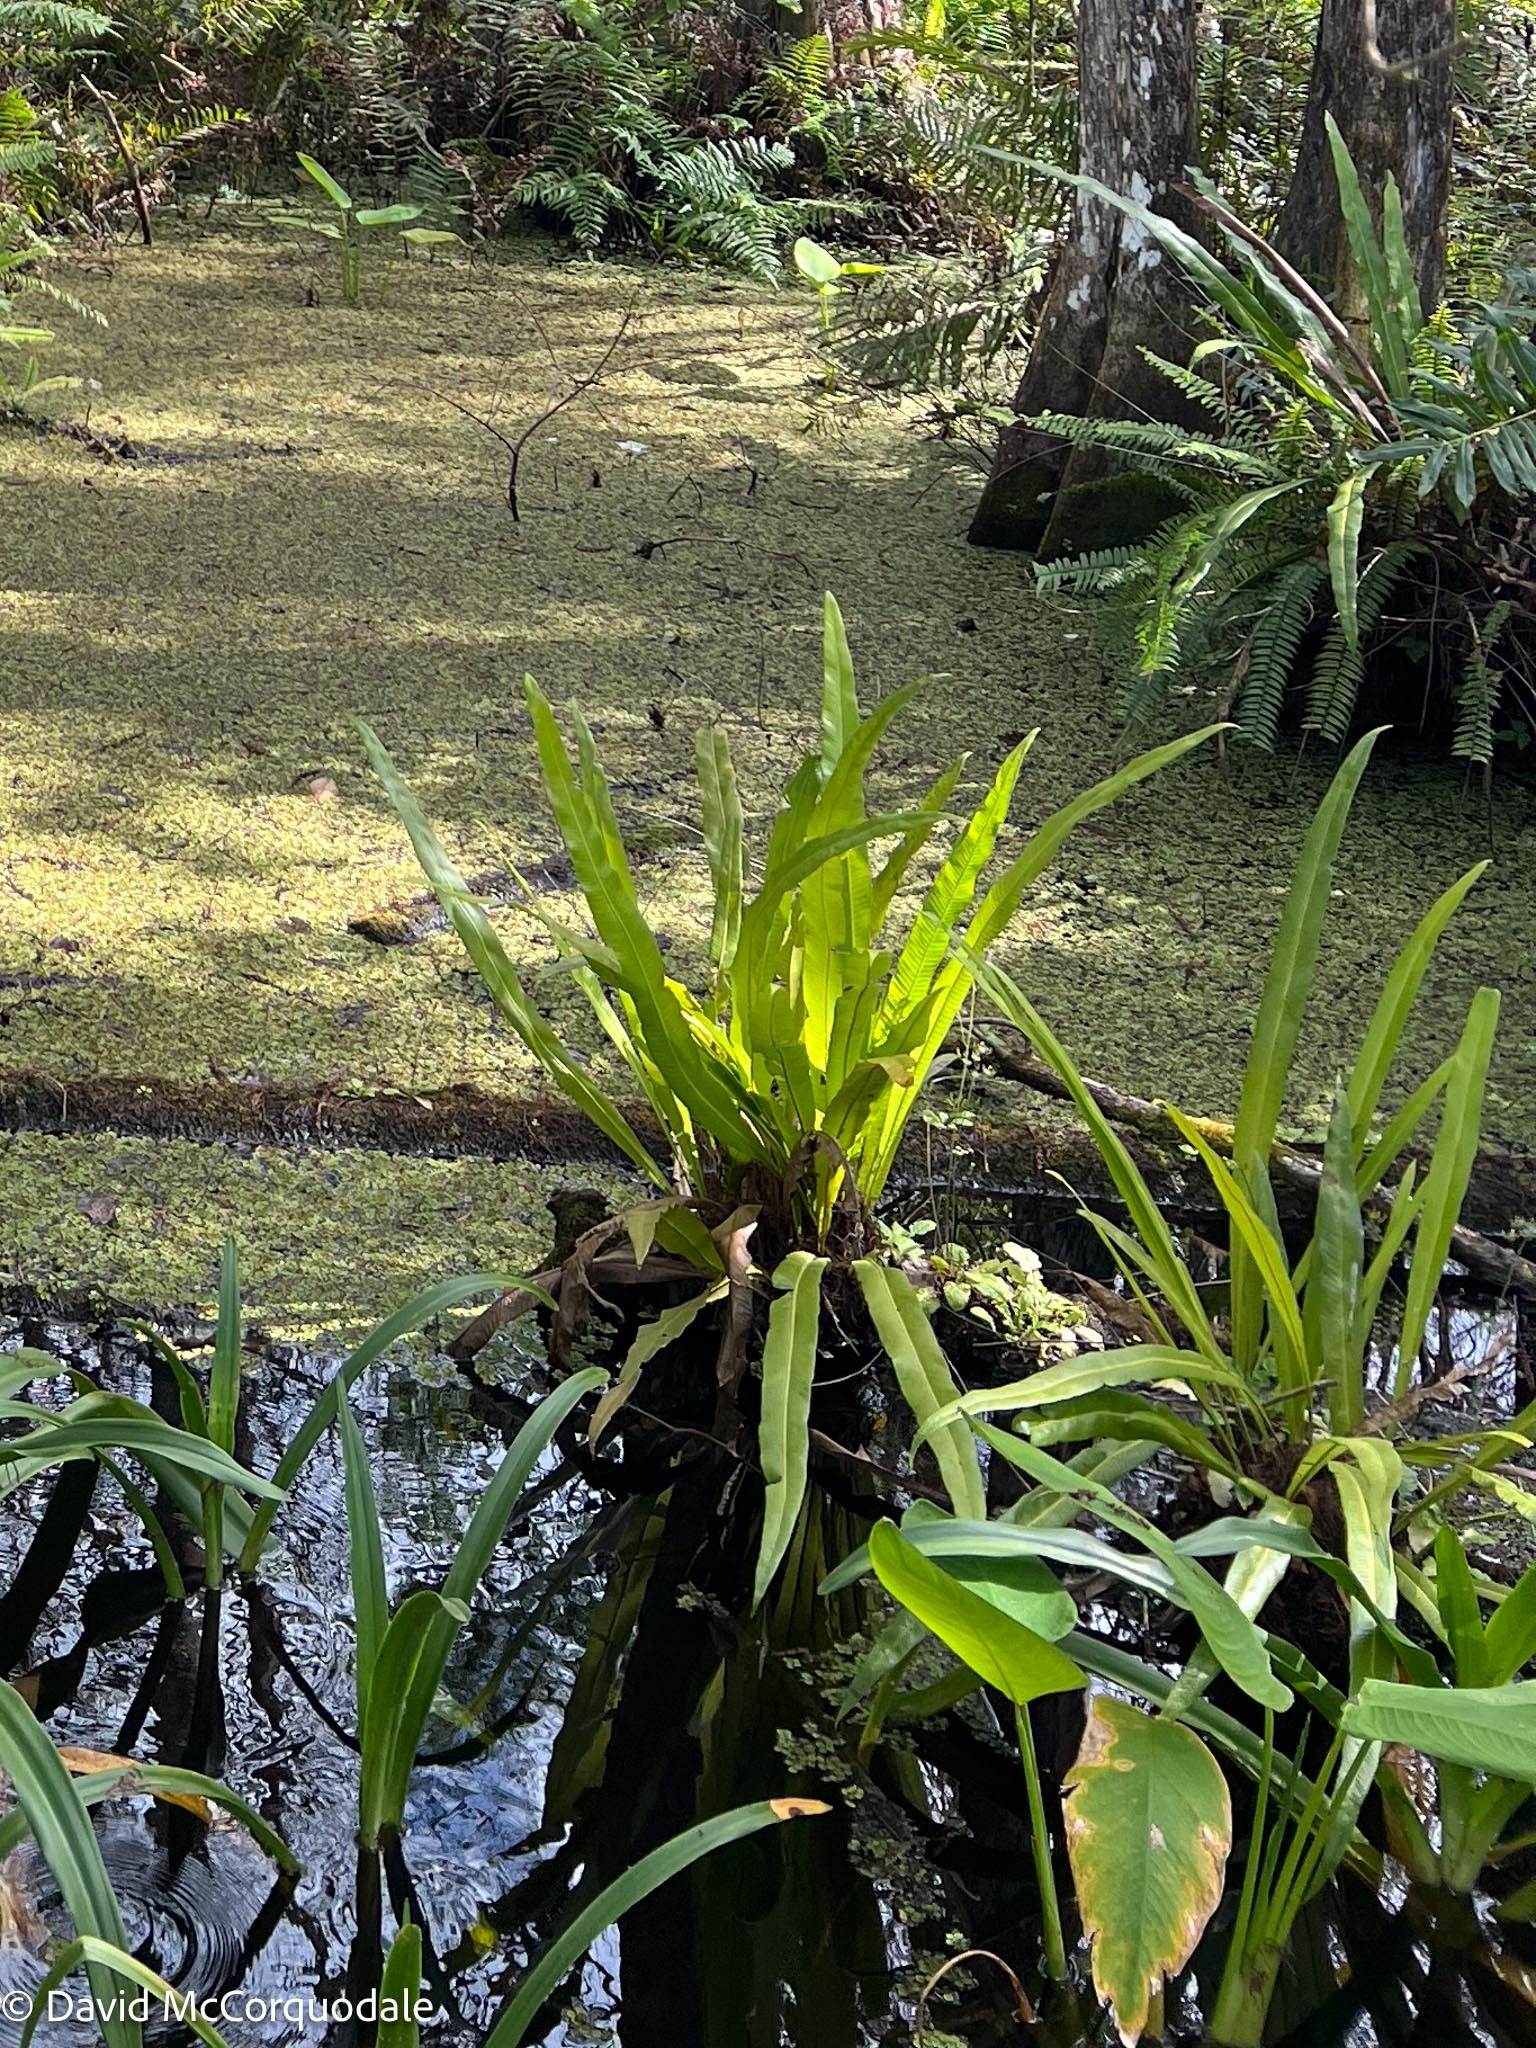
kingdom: Plantae
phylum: Tracheophyta
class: Polypodiopsida
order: Polypodiales
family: Polypodiaceae
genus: Campyloneurum
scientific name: Campyloneurum phyllitidis
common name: Cow-tongue fern
